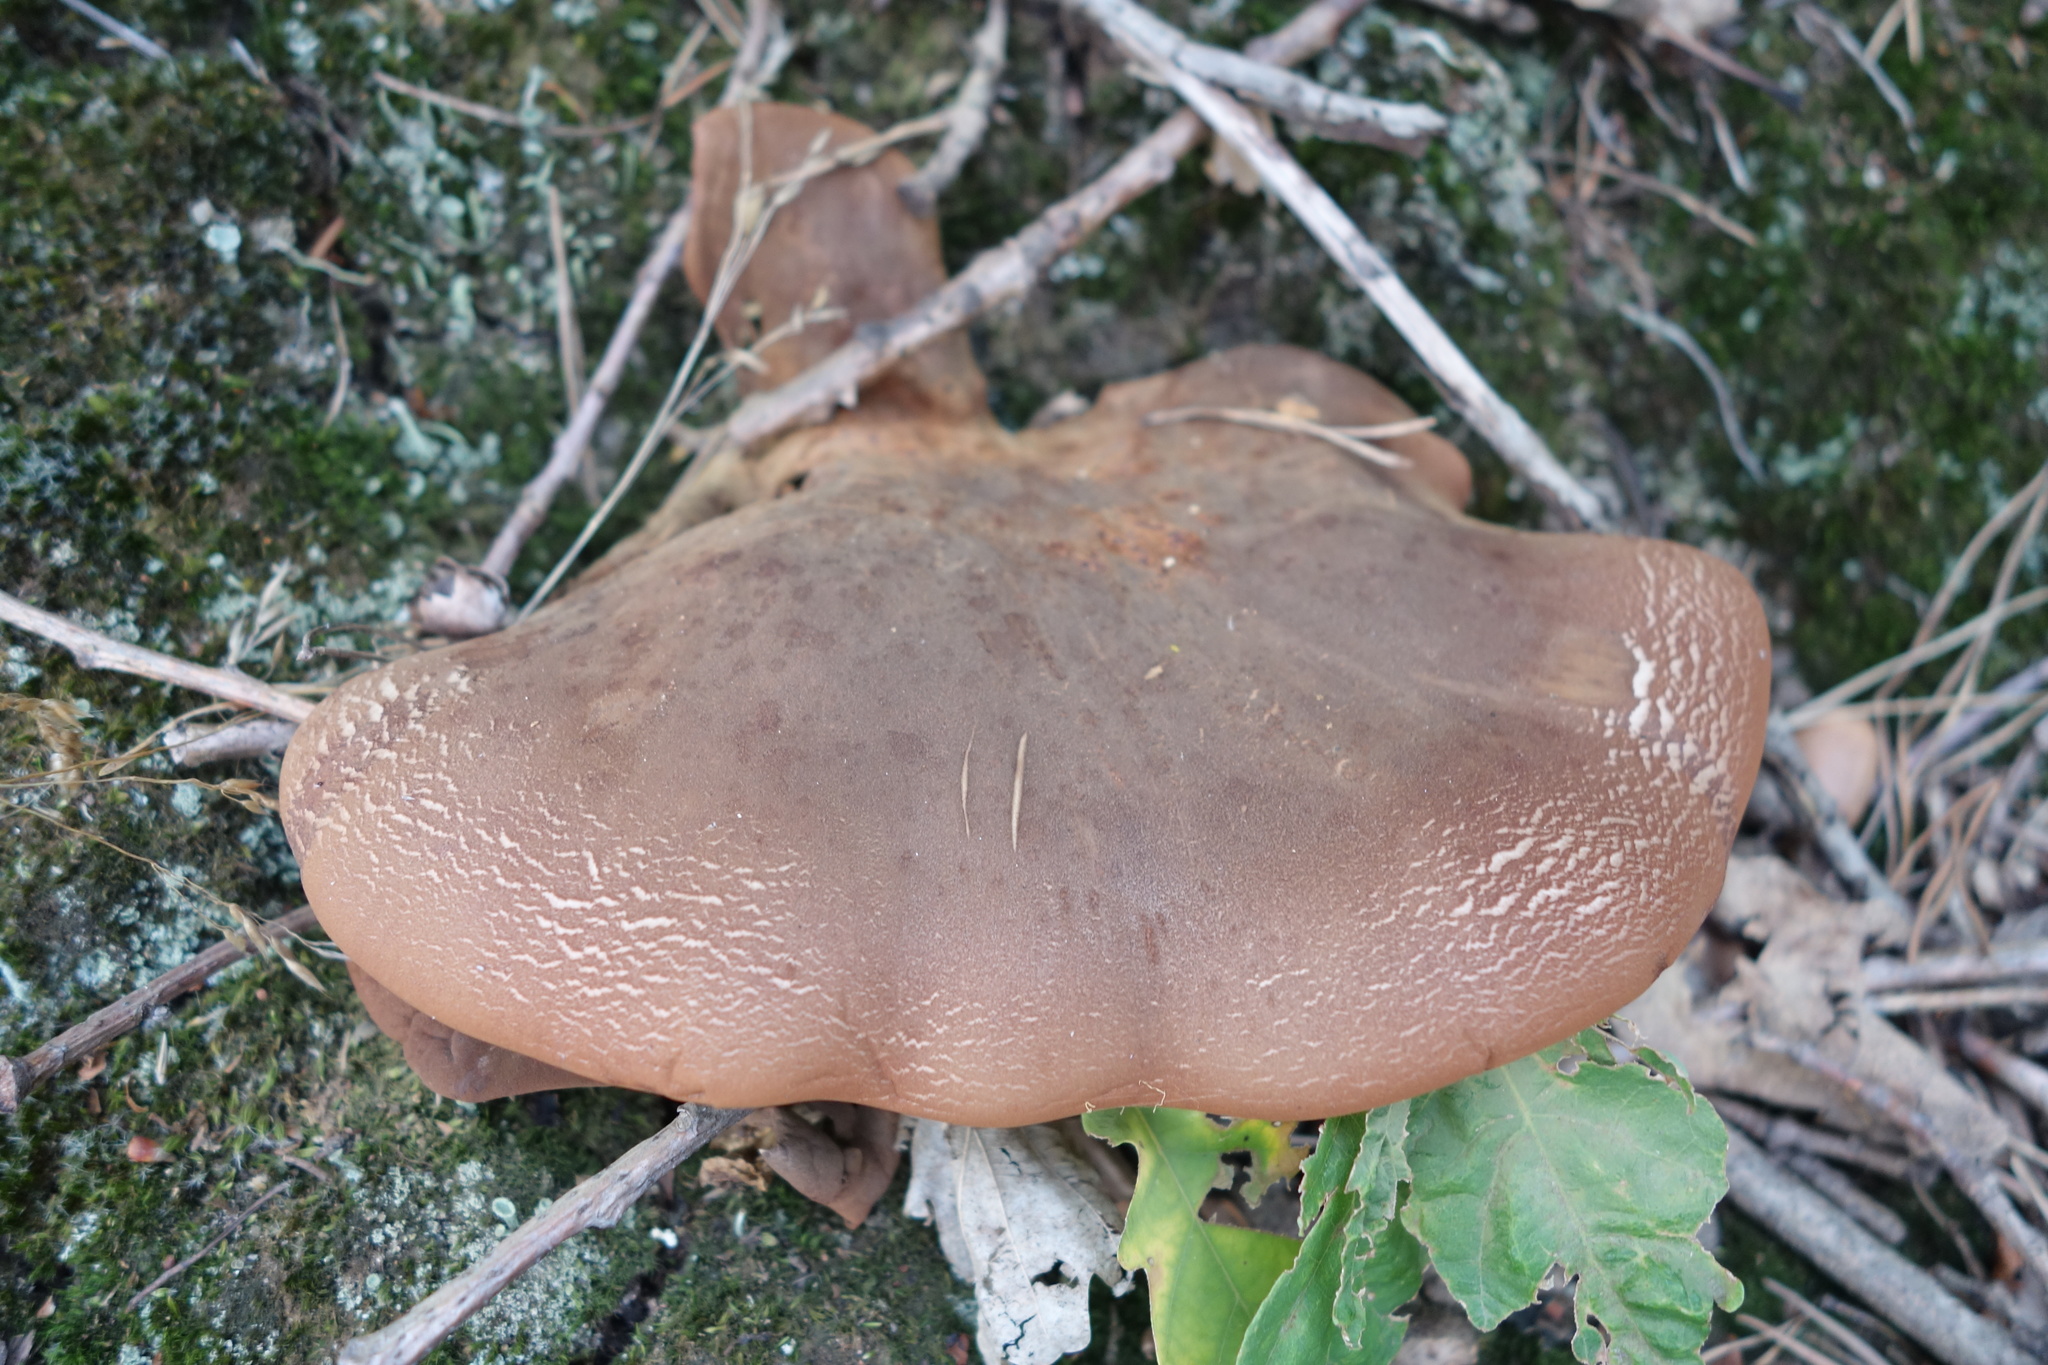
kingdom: Fungi
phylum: Basidiomycota
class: Agaricomycetes
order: Boletales
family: Tapinellaceae
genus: Tapinella
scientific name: Tapinella atrotomentosa
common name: Velvet rollrim
